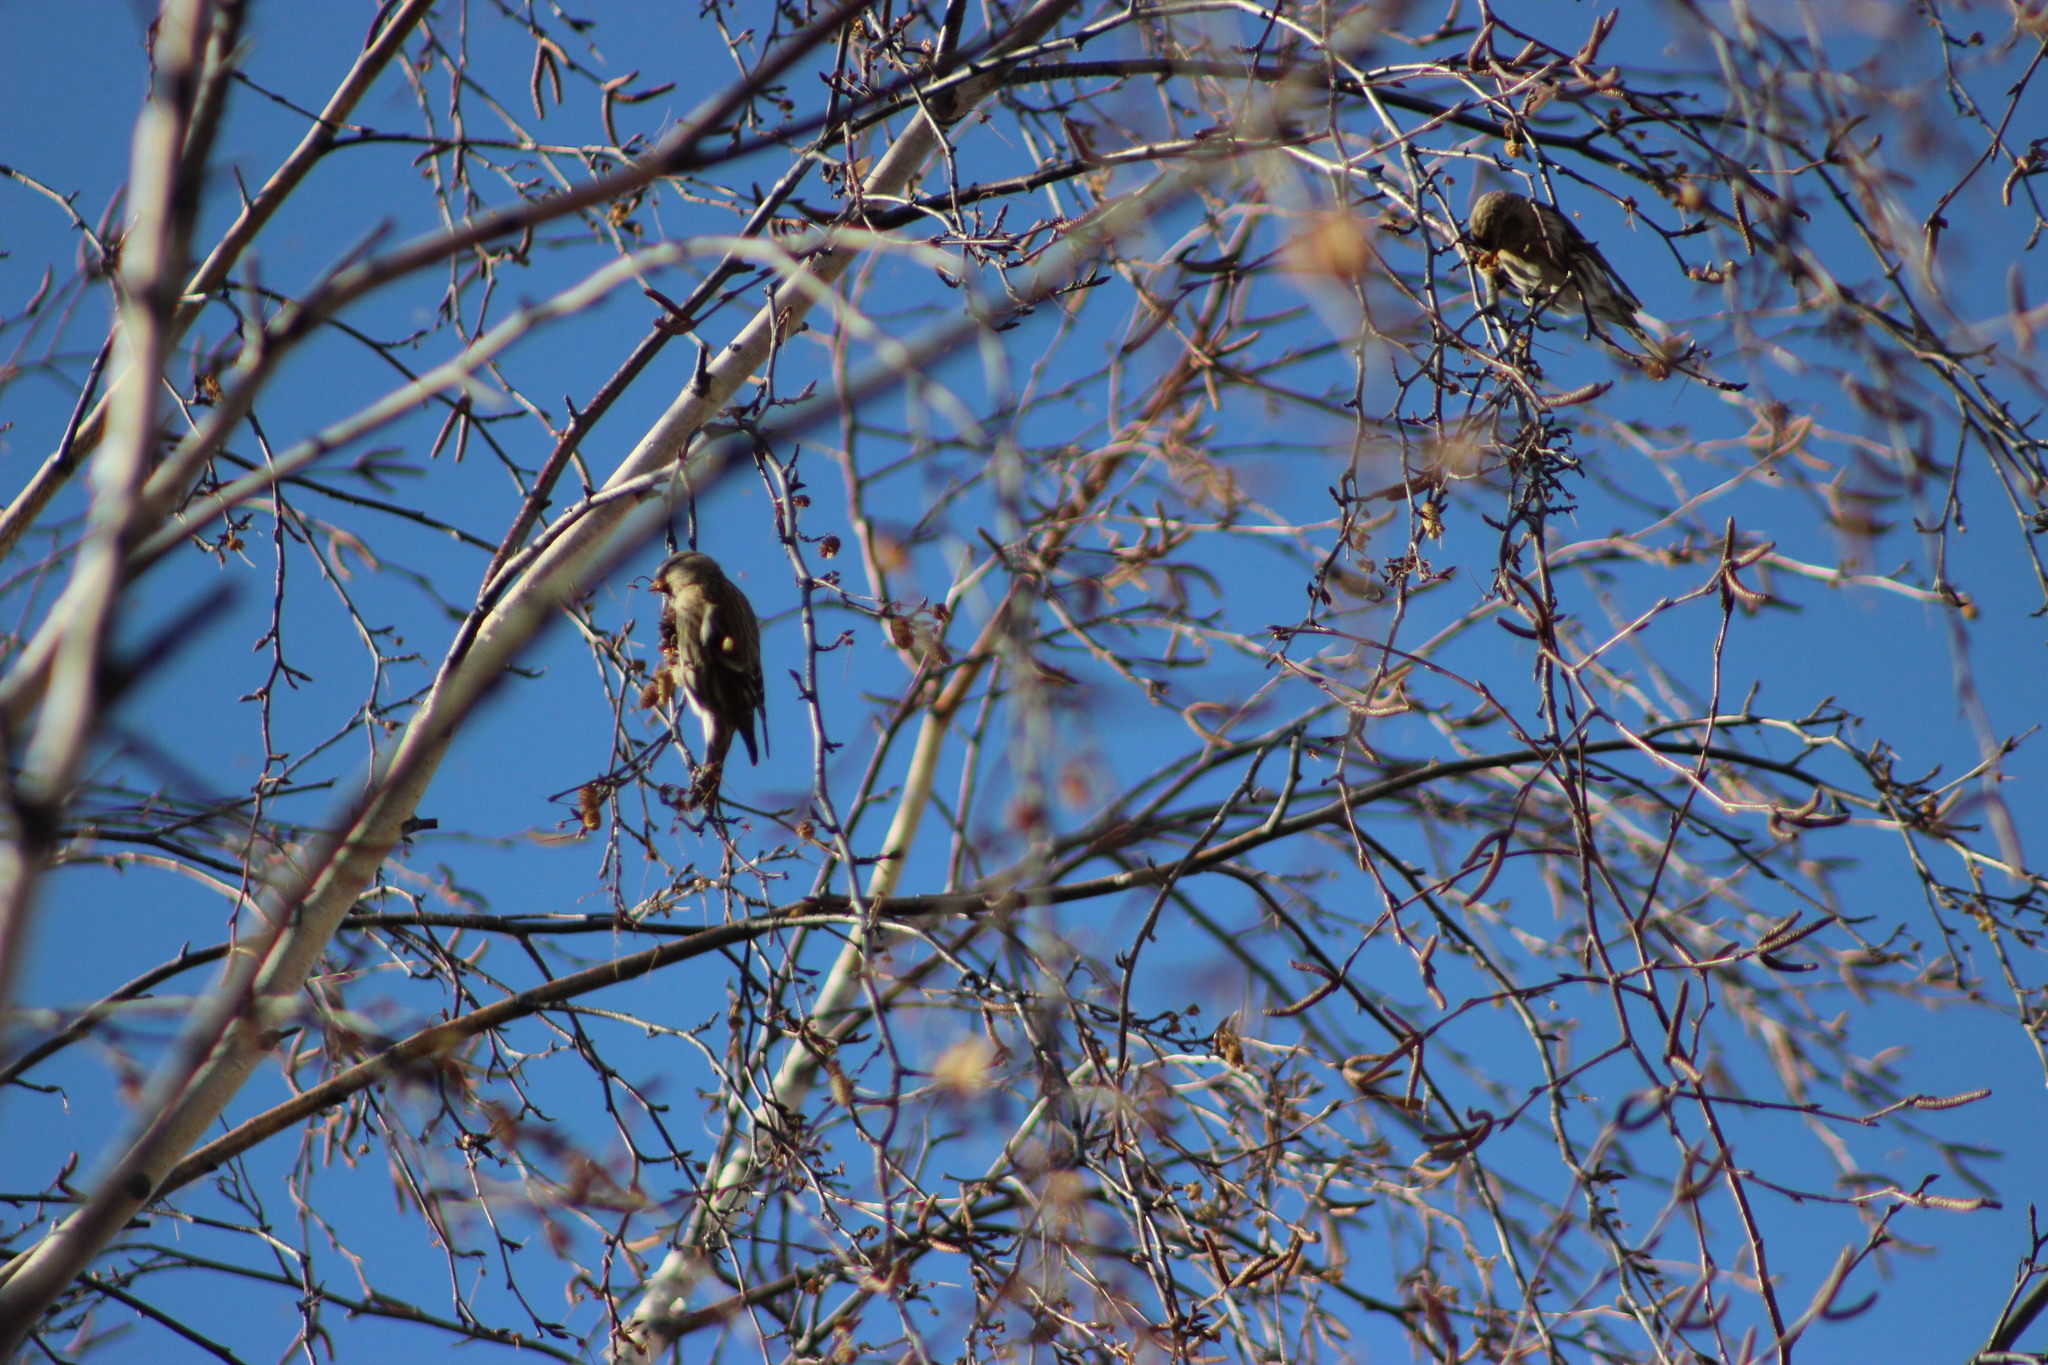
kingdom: Animalia
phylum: Chordata
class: Aves
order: Passeriformes
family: Fringillidae
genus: Acanthis
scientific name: Acanthis flammea
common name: Common redpoll
